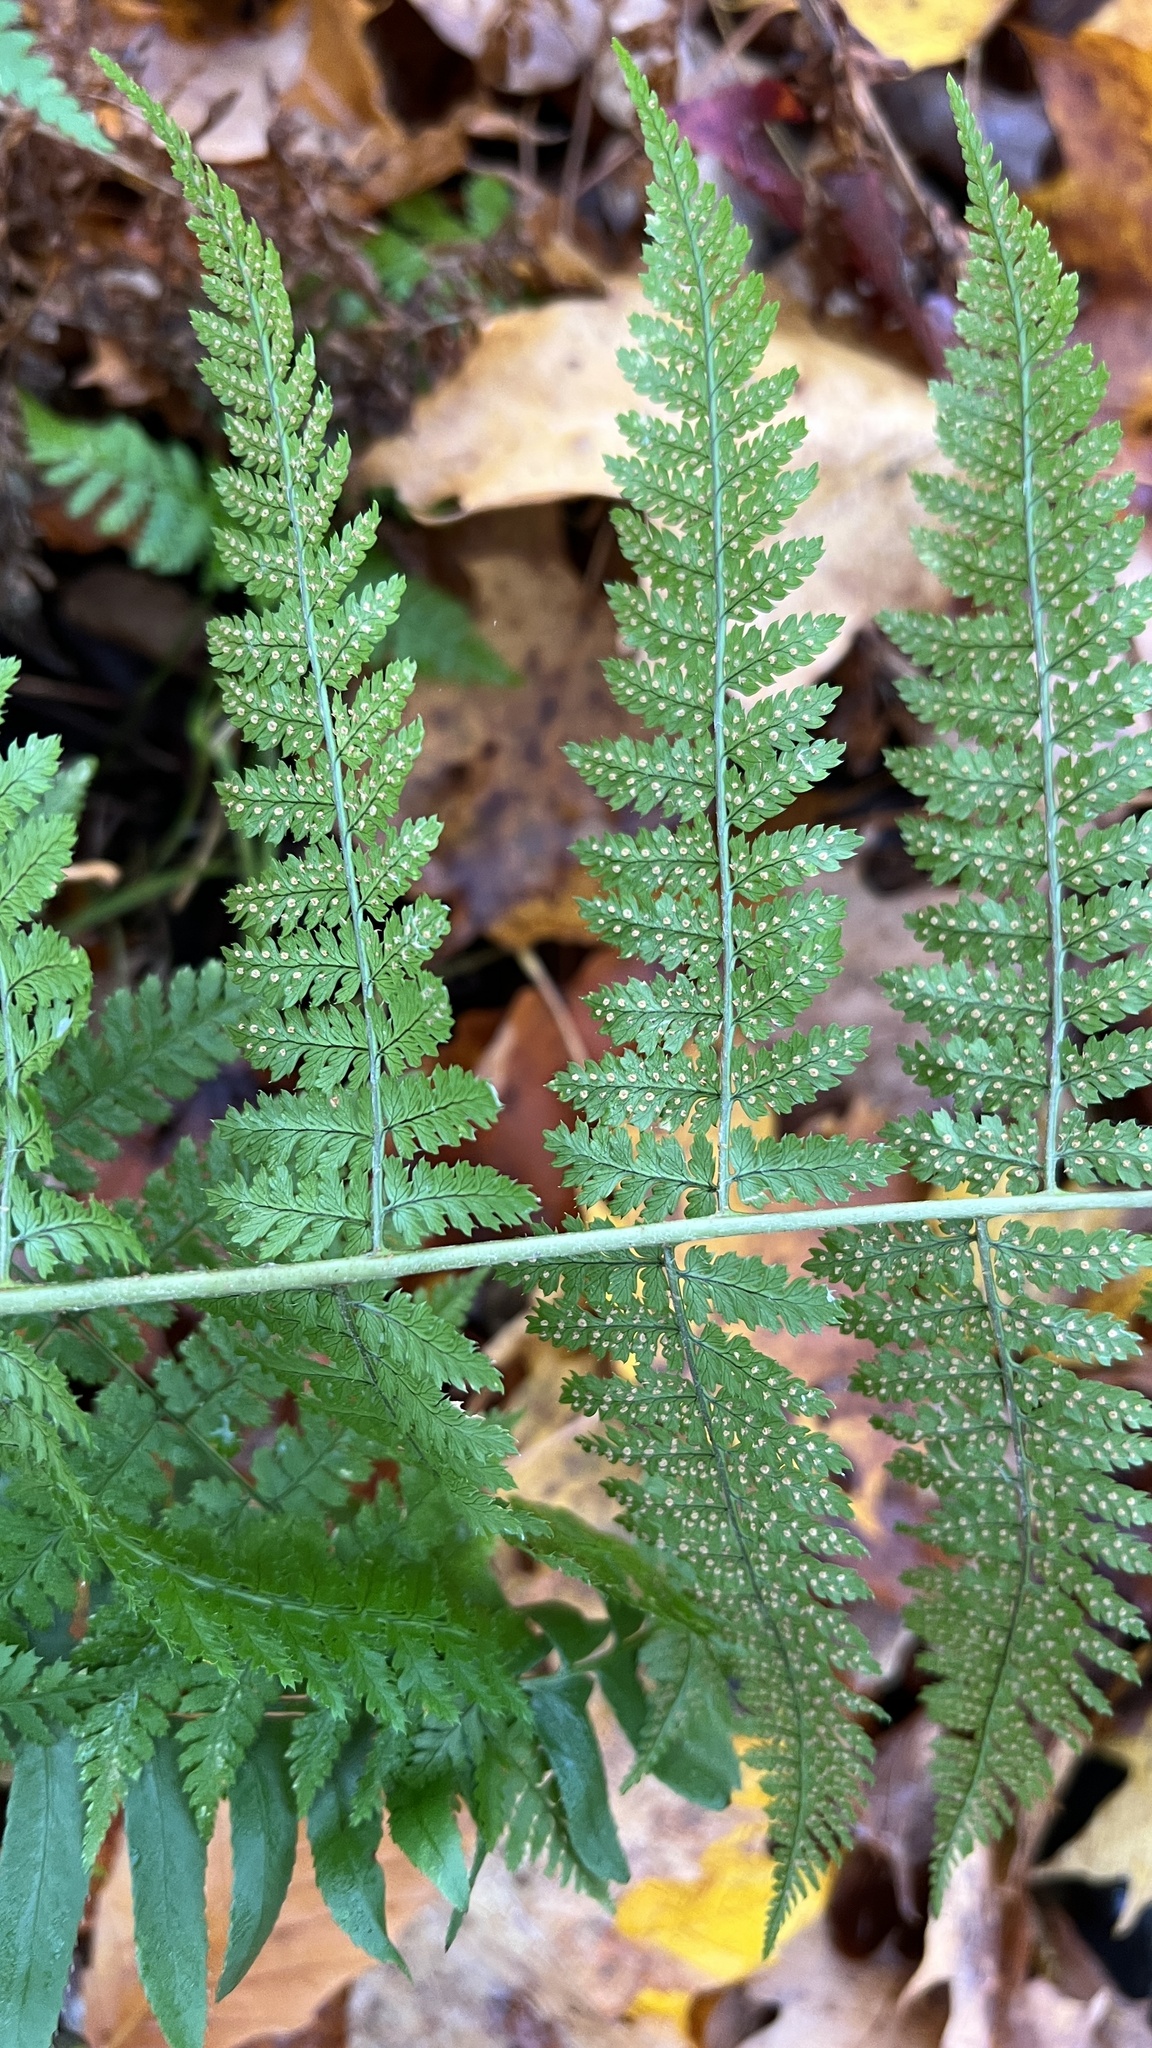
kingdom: Plantae
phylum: Tracheophyta
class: Polypodiopsida
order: Polypodiales
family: Dryopteridaceae
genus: Dryopteris
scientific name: Dryopteris intermedia
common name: Evergreen wood fern
